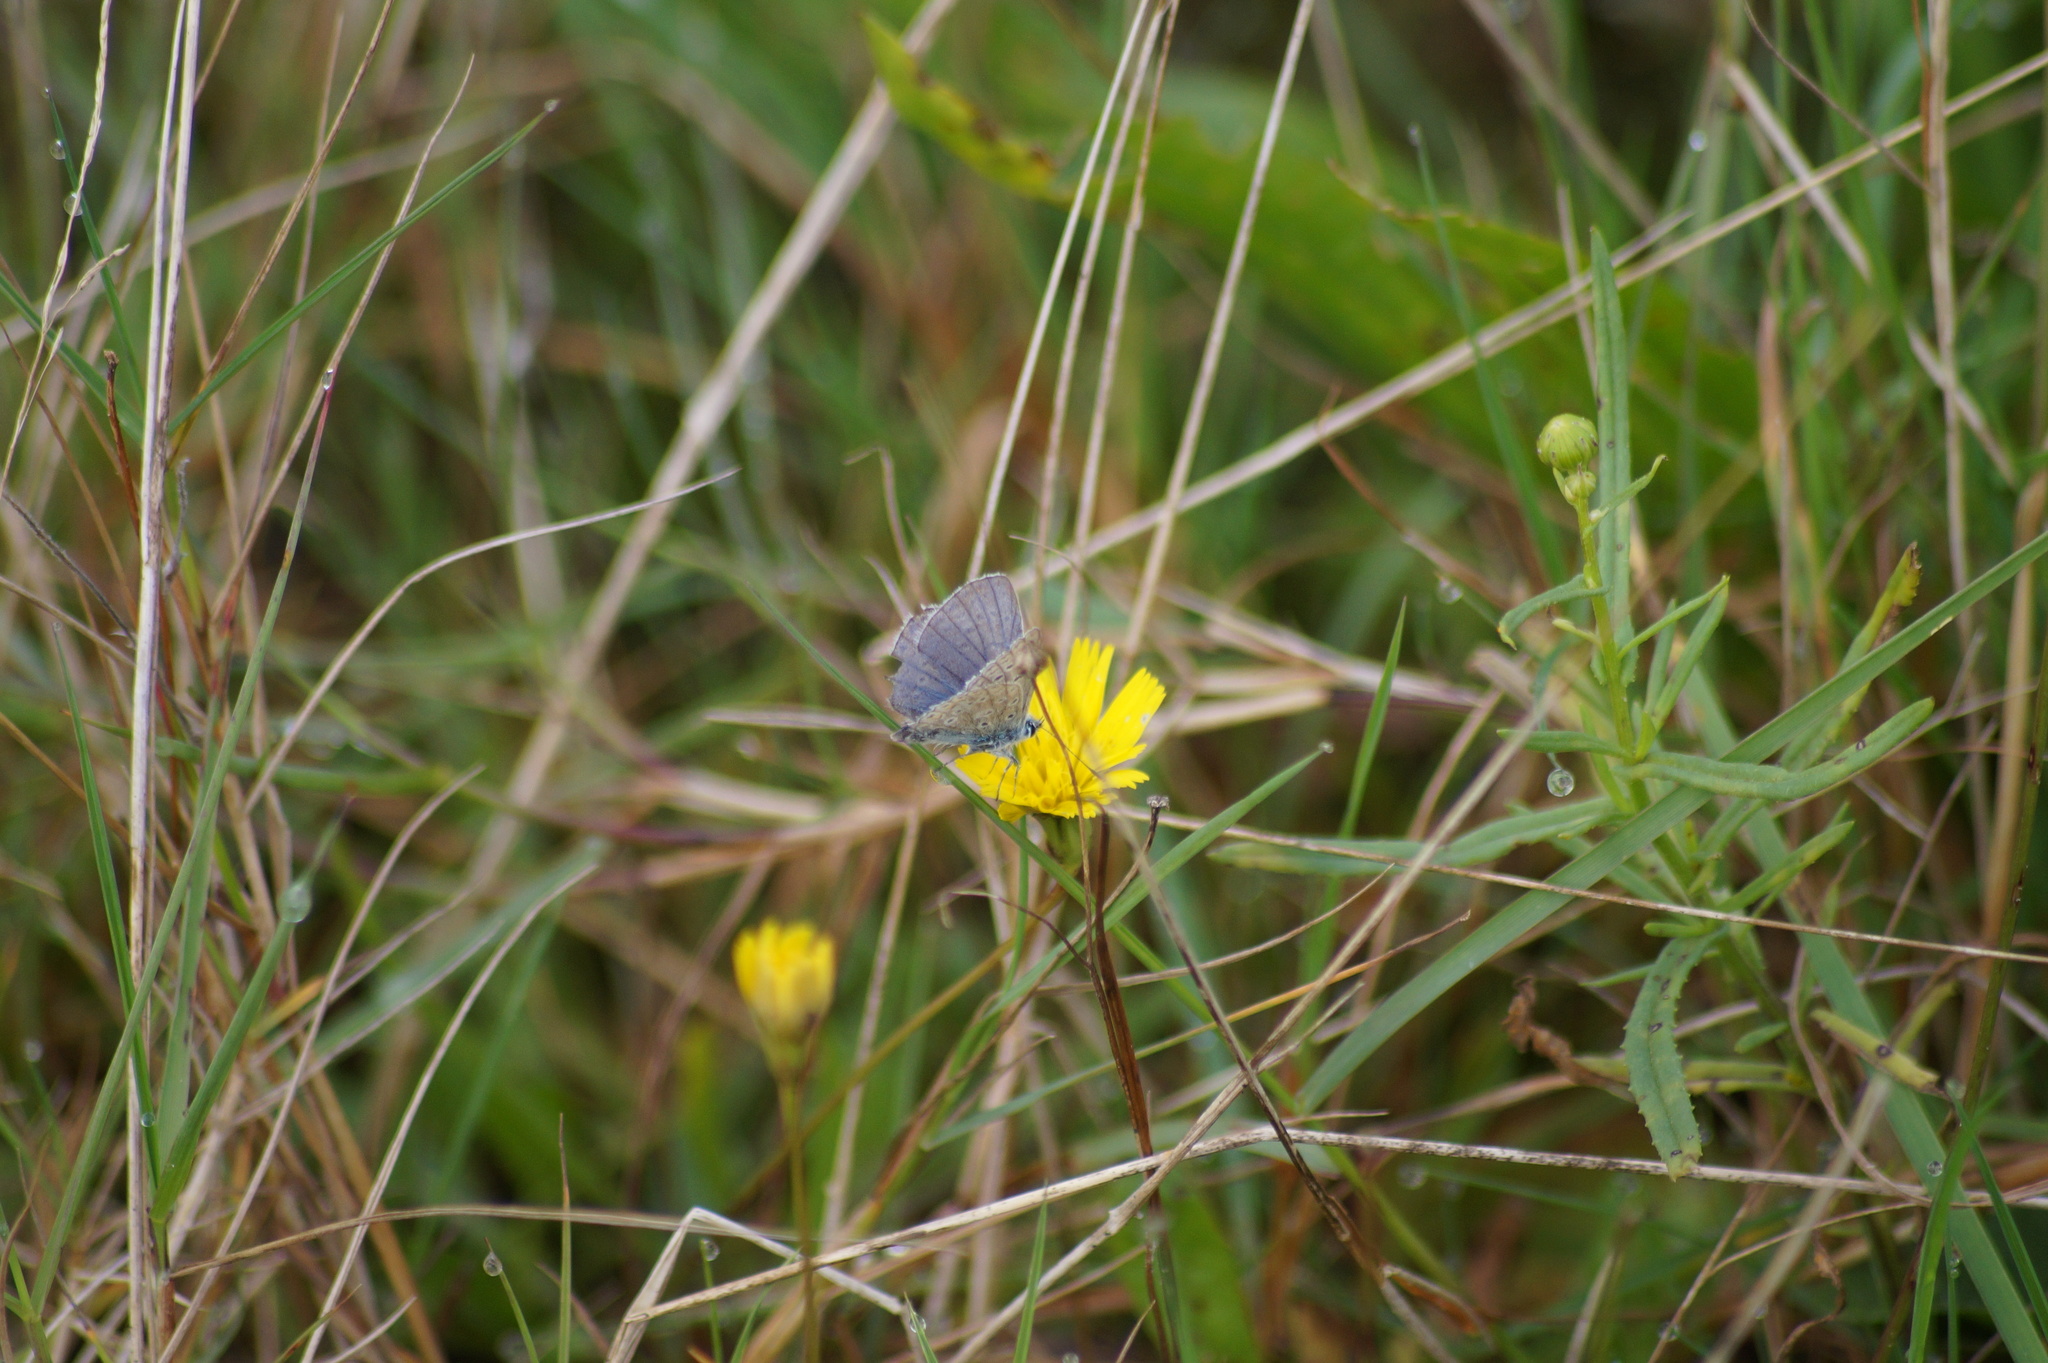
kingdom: Animalia
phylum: Arthropoda
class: Insecta
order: Lepidoptera
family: Lycaenidae
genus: Polyommatus
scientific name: Polyommatus icarus
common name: Common blue
